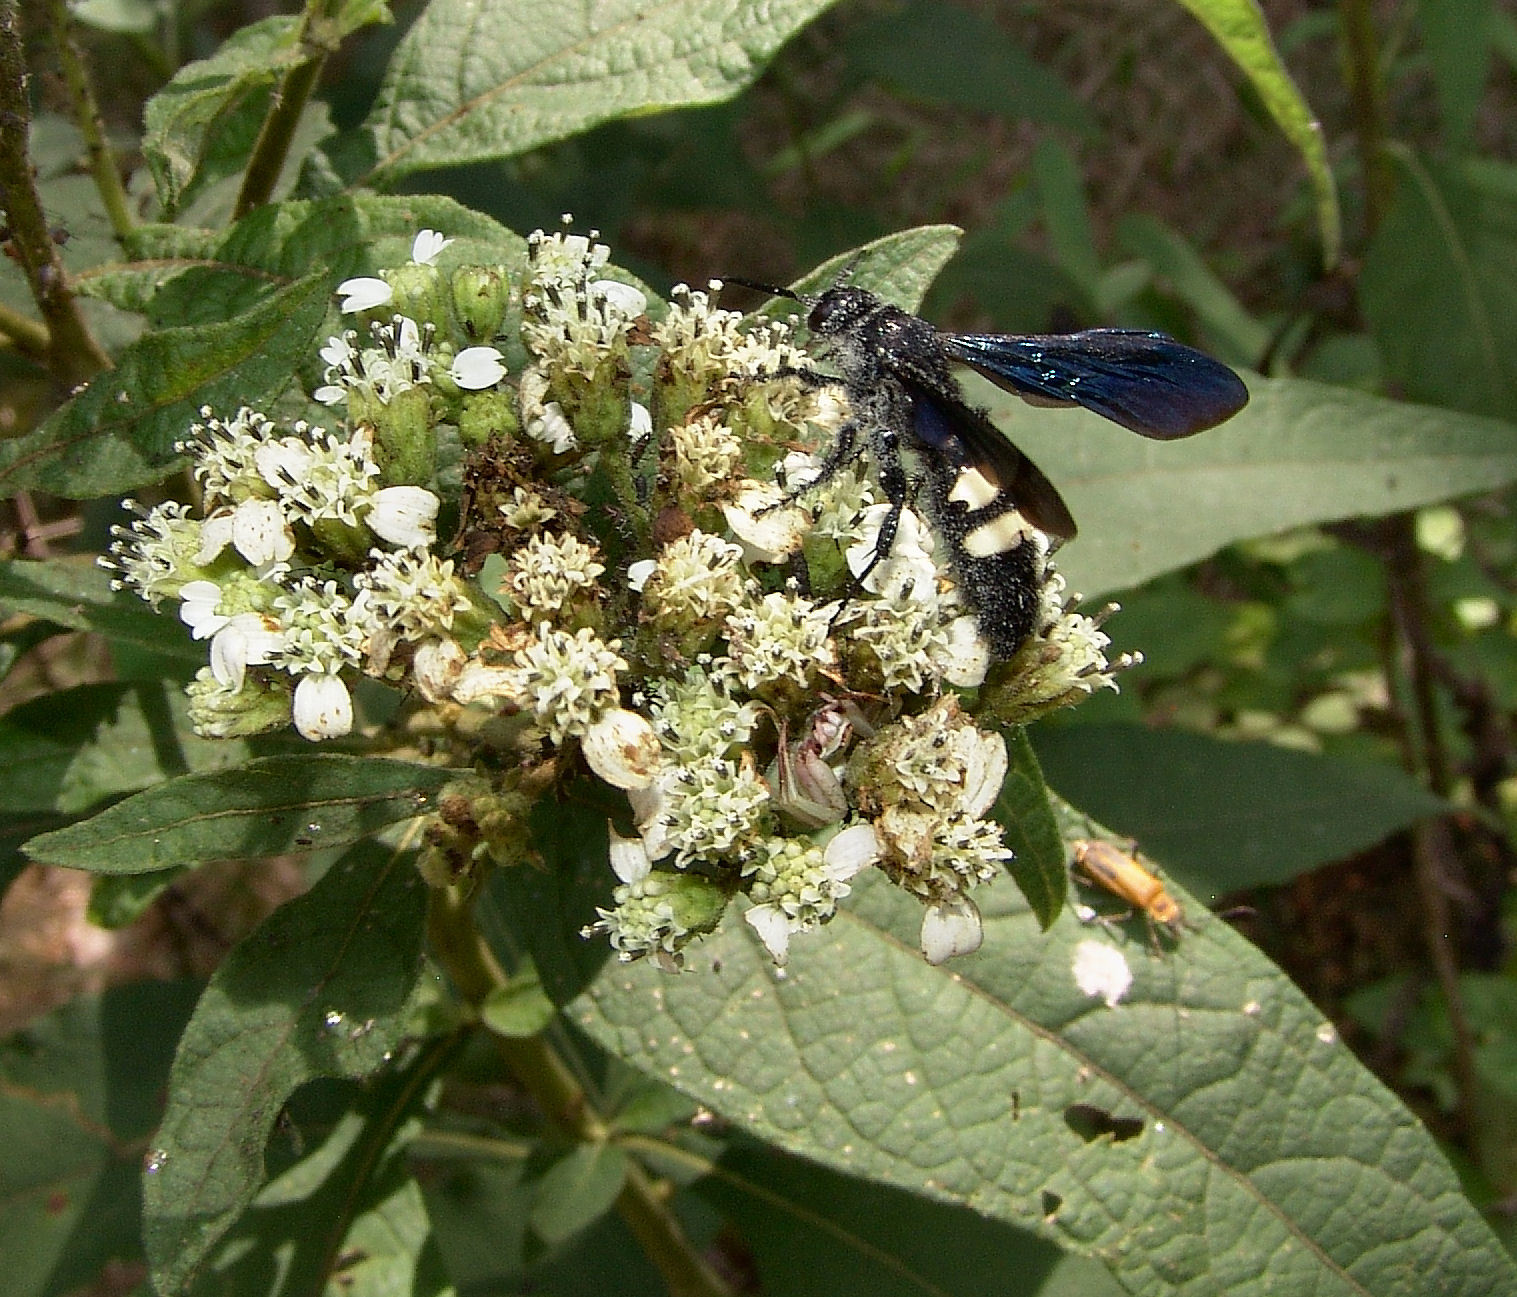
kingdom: Animalia
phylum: Arthropoda
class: Insecta
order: Hymenoptera
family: Scoliidae
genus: Scolia
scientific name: Scolia bicincta
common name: Double-banded scoliid wasp
